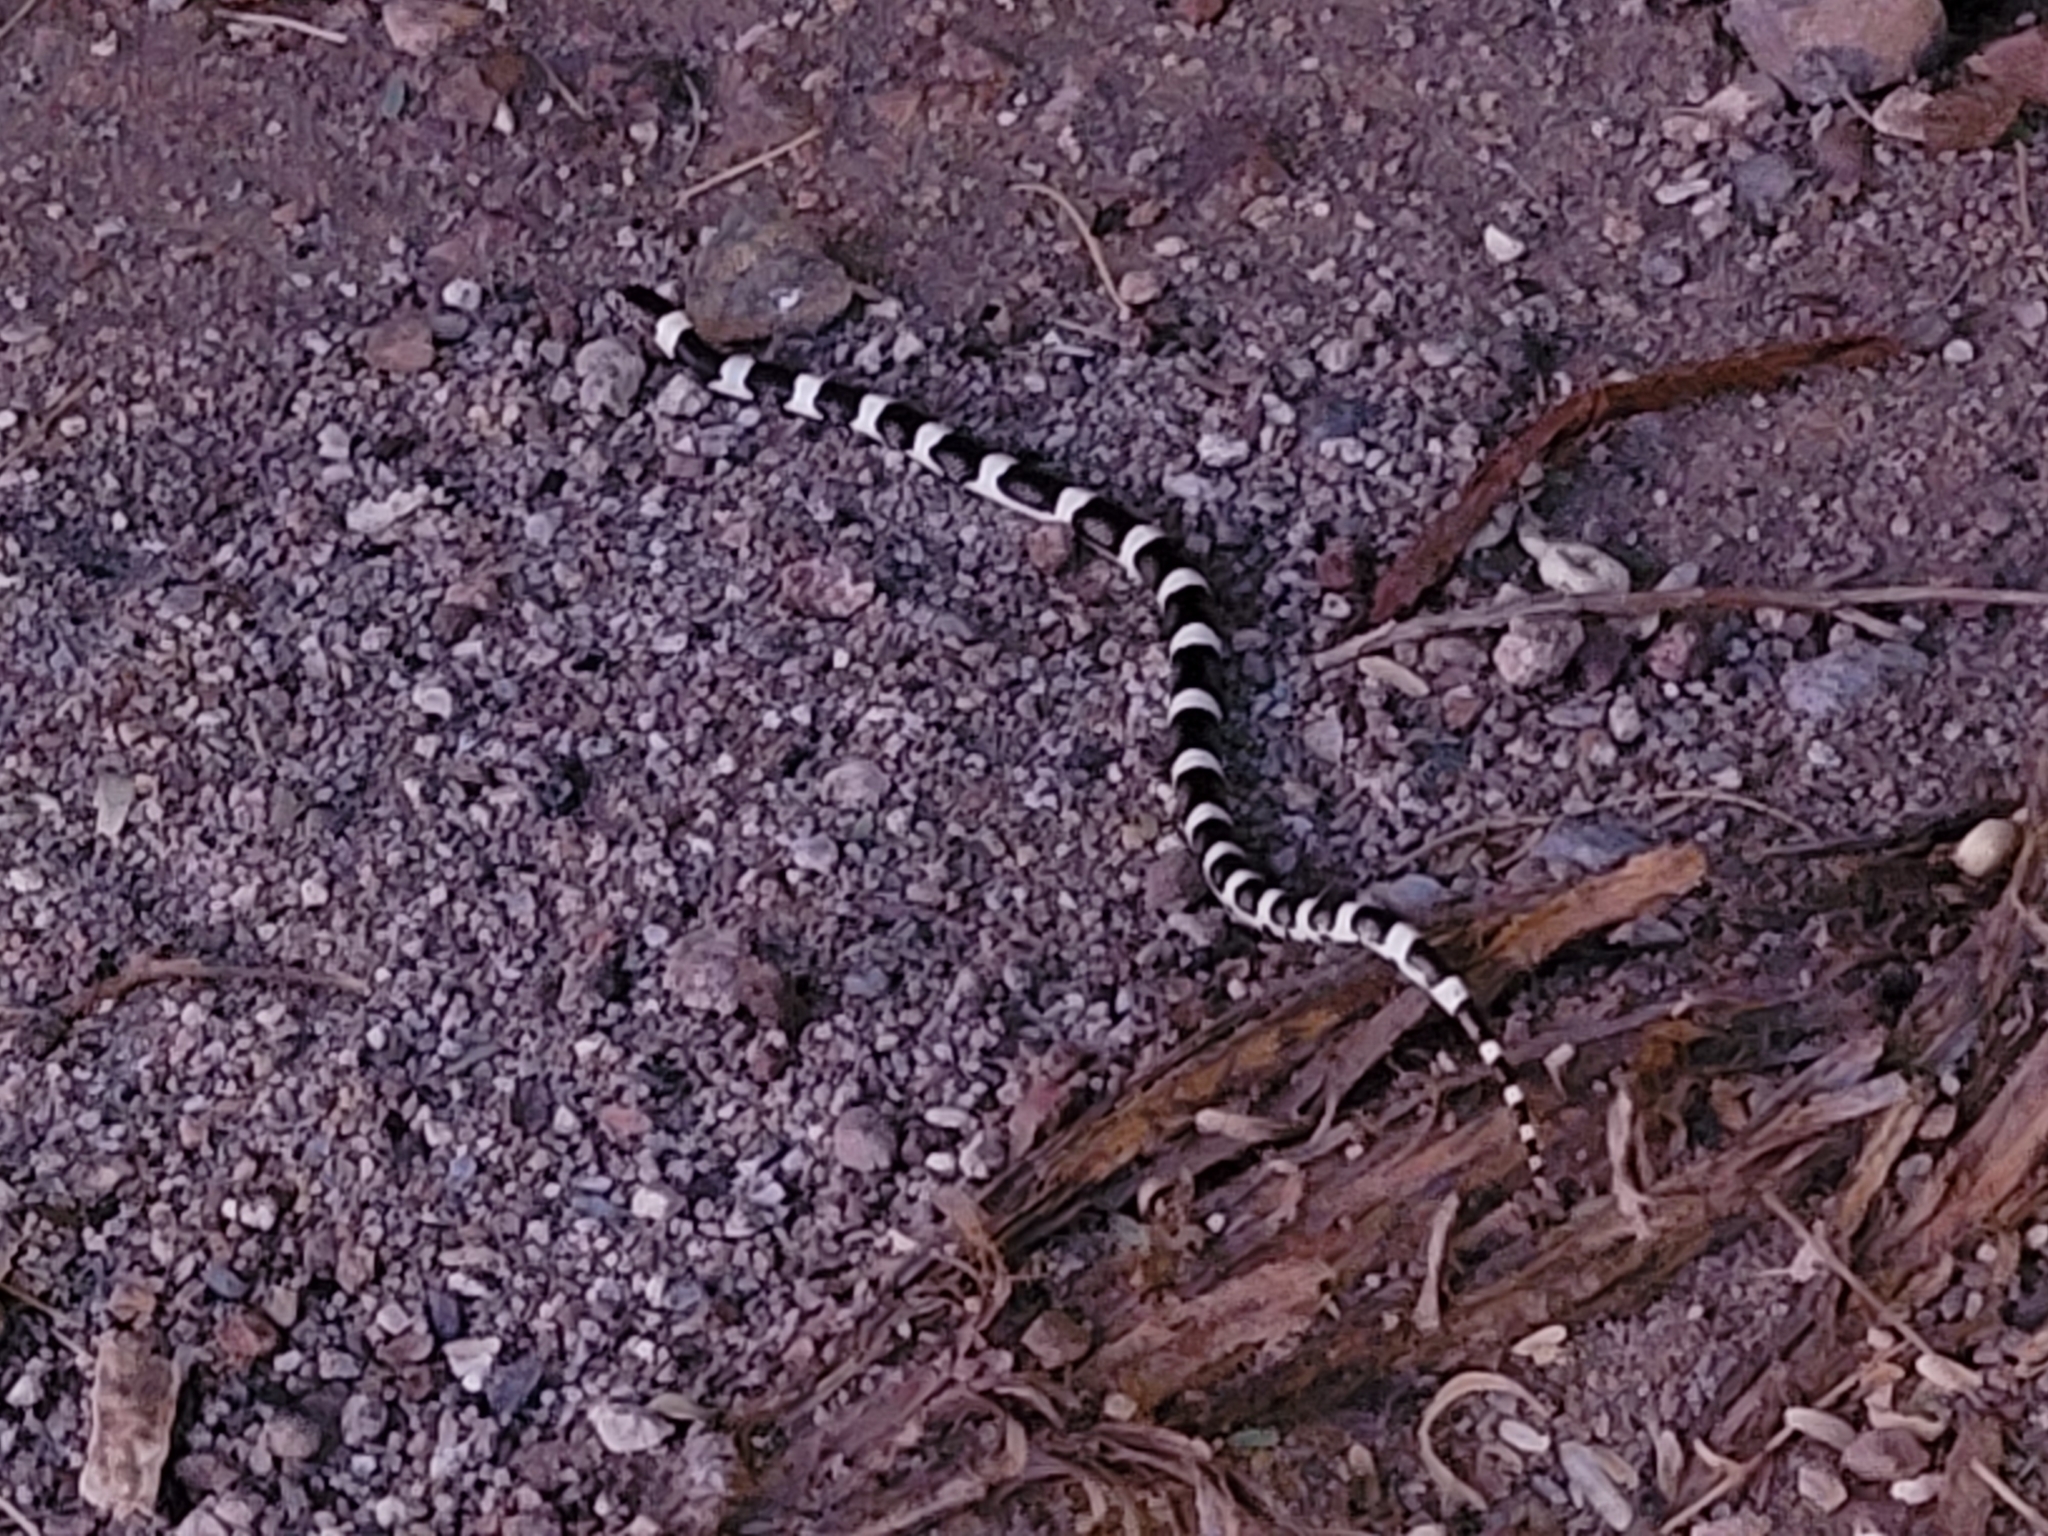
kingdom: Animalia
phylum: Chordata
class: Squamata
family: Colubridae
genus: Rhinocheilus
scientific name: Rhinocheilus lecontei
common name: Longnose snake
